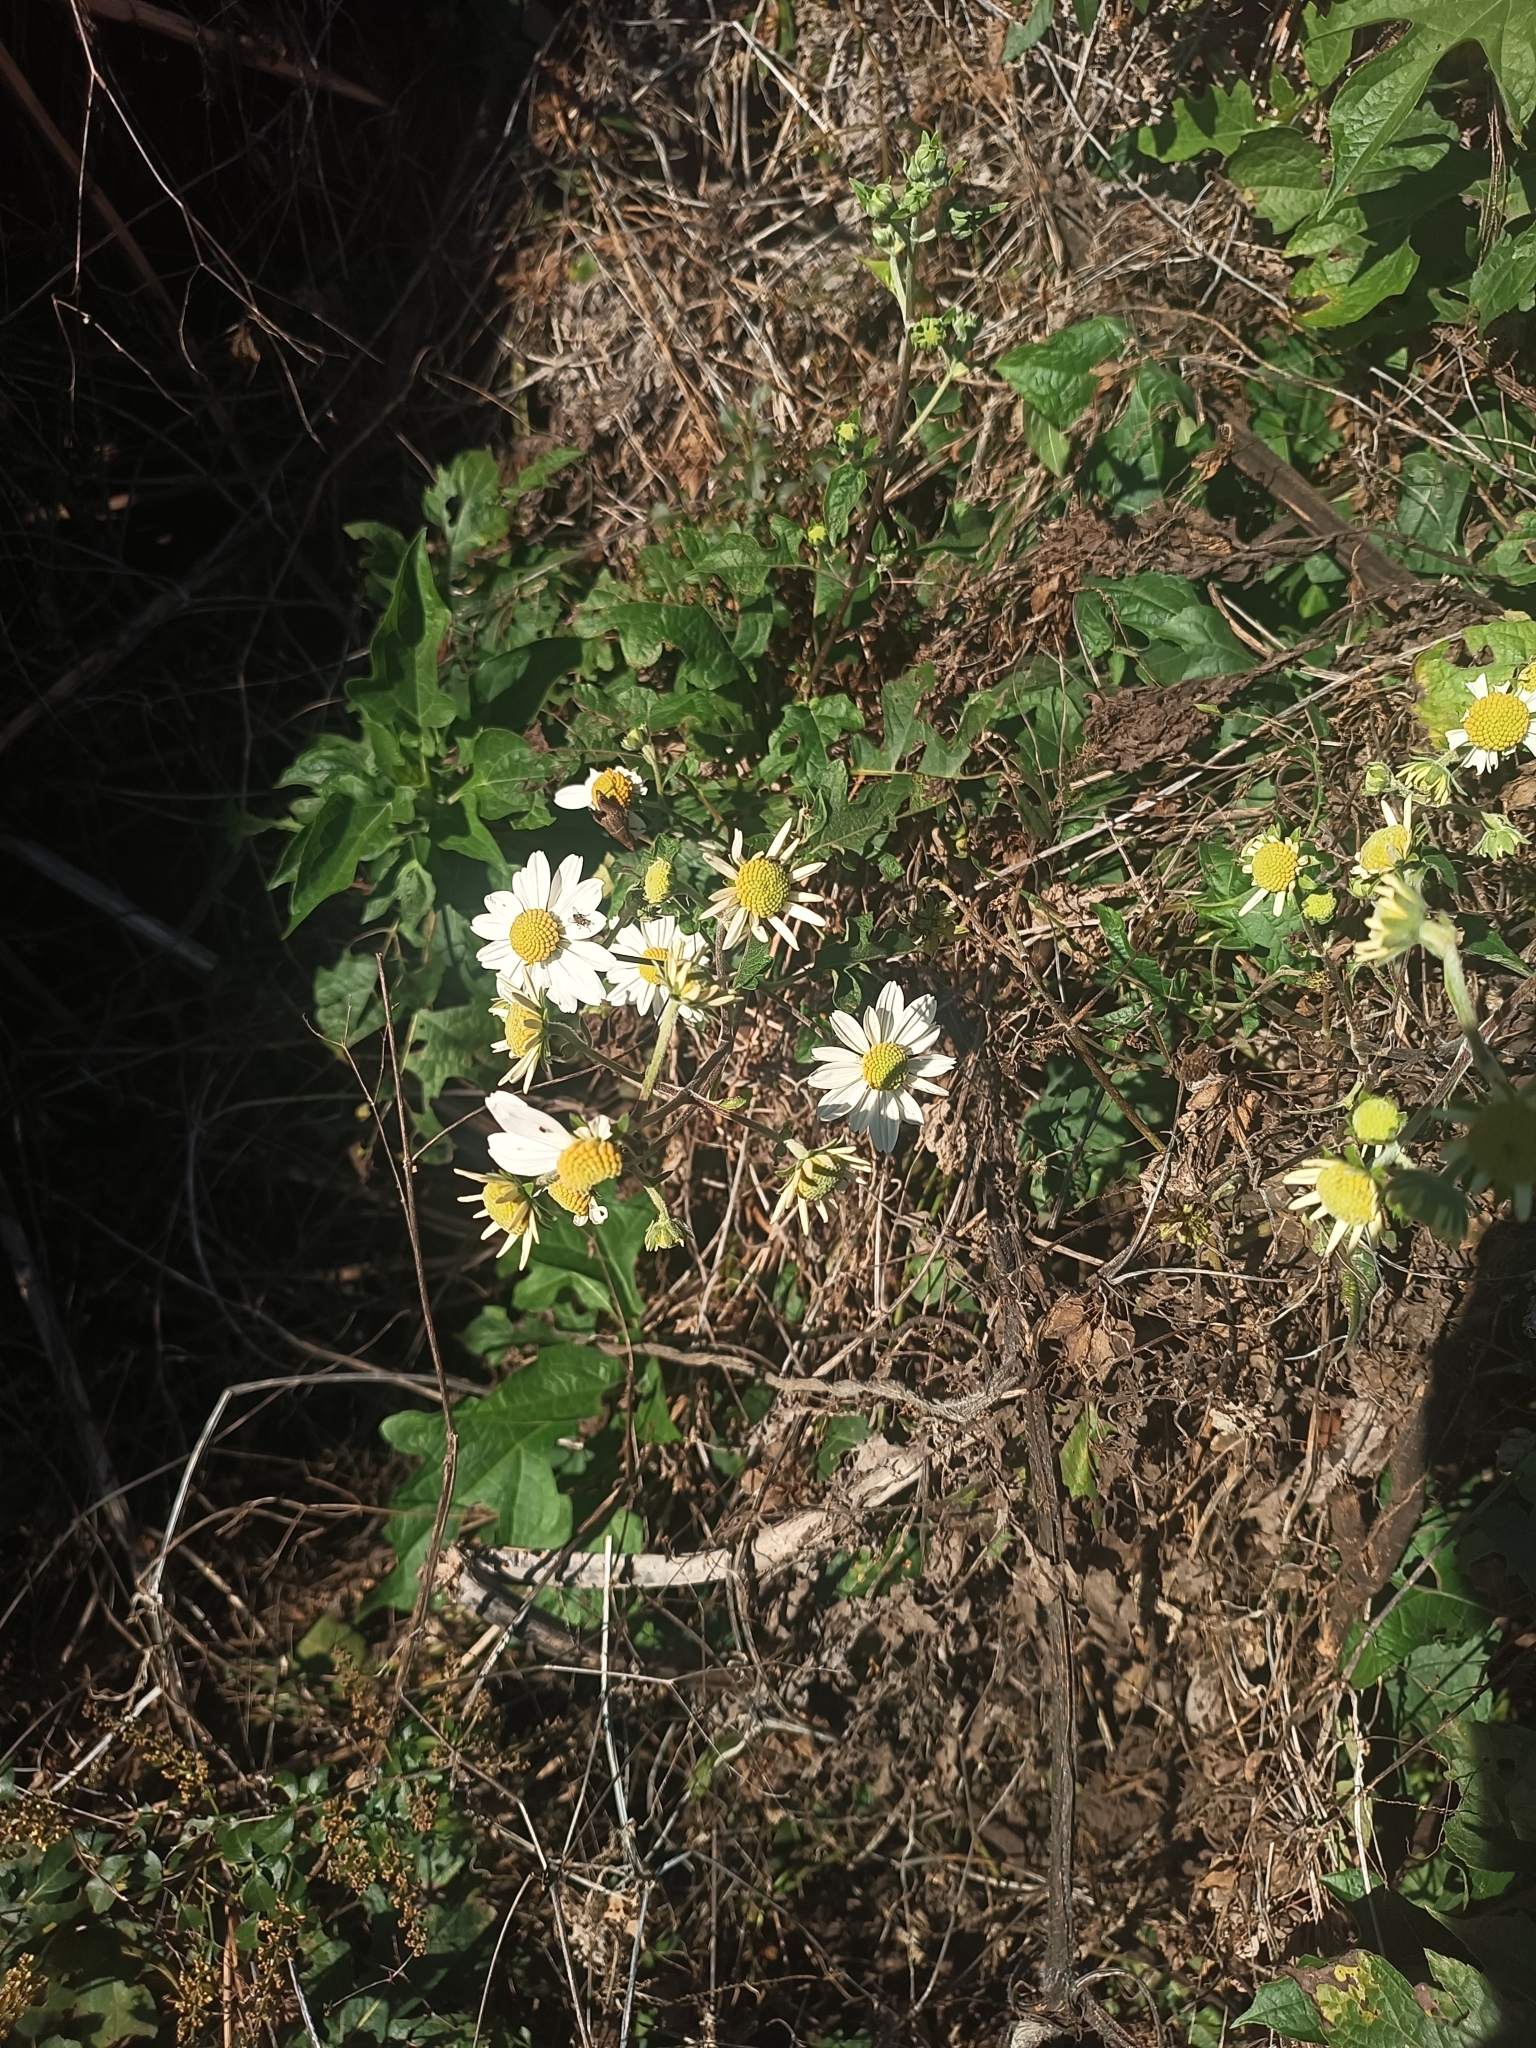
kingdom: Plantae
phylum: Tracheophyta
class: Magnoliopsida
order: Asterales
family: Asteraceae
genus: Montanoa
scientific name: Montanoa bipinnatifida
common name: Mexican daisy bush
